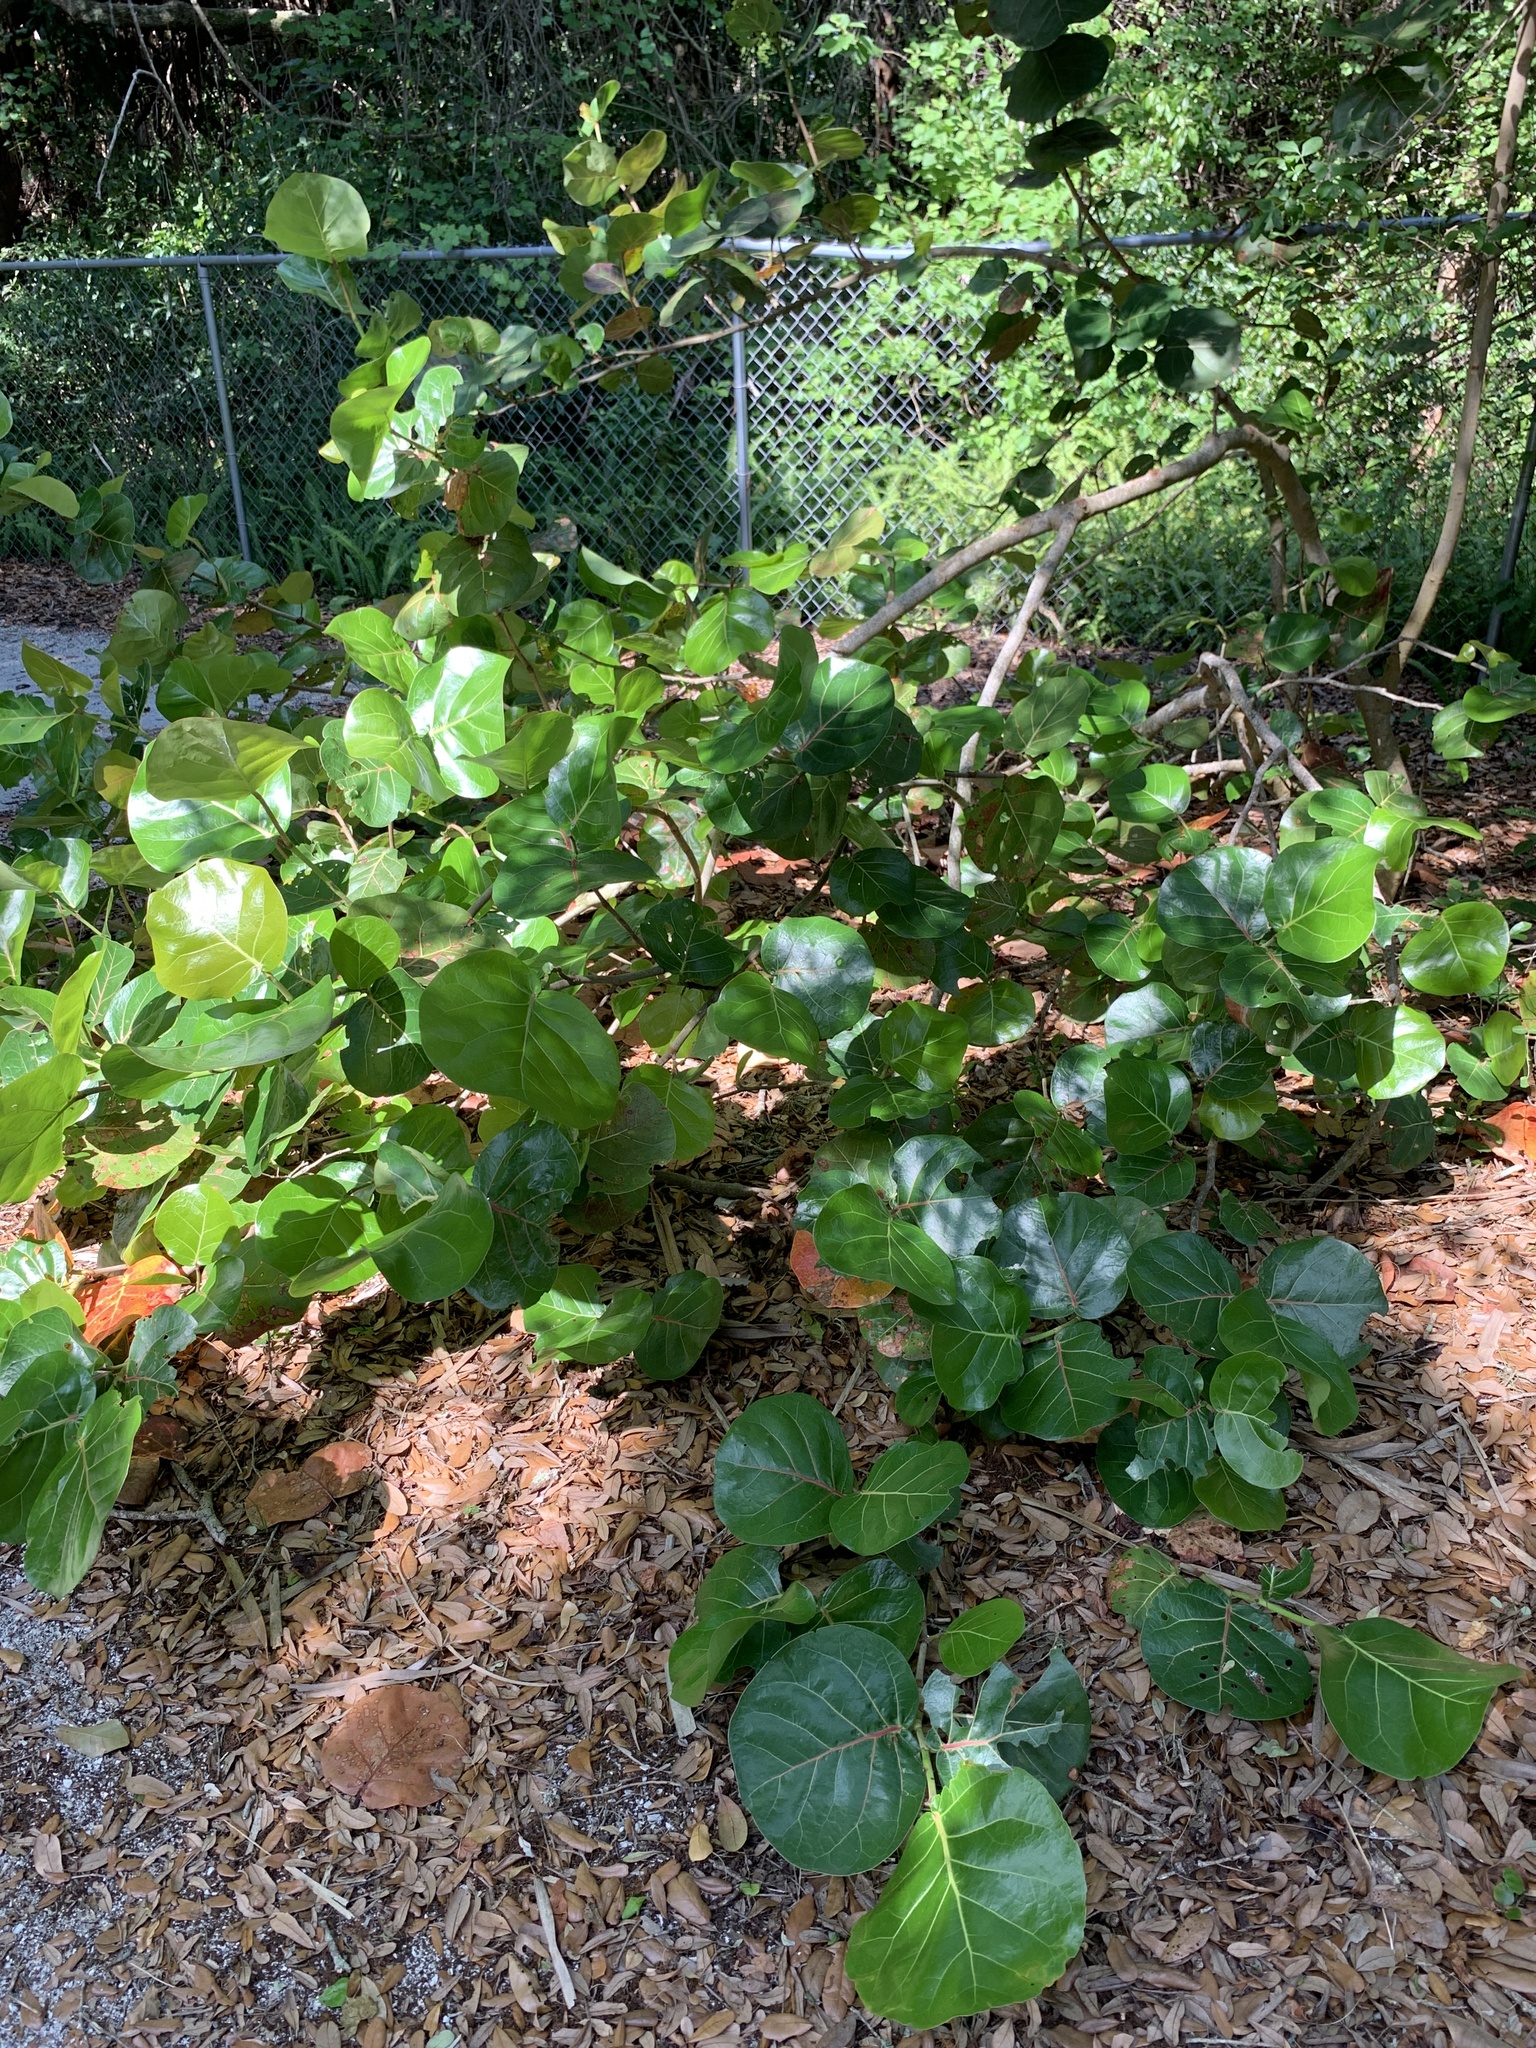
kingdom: Plantae
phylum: Tracheophyta
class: Magnoliopsida
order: Caryophyllales
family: Polygonaceae
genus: Coccoloba
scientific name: Coccoloba uvifera
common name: Seagrape
